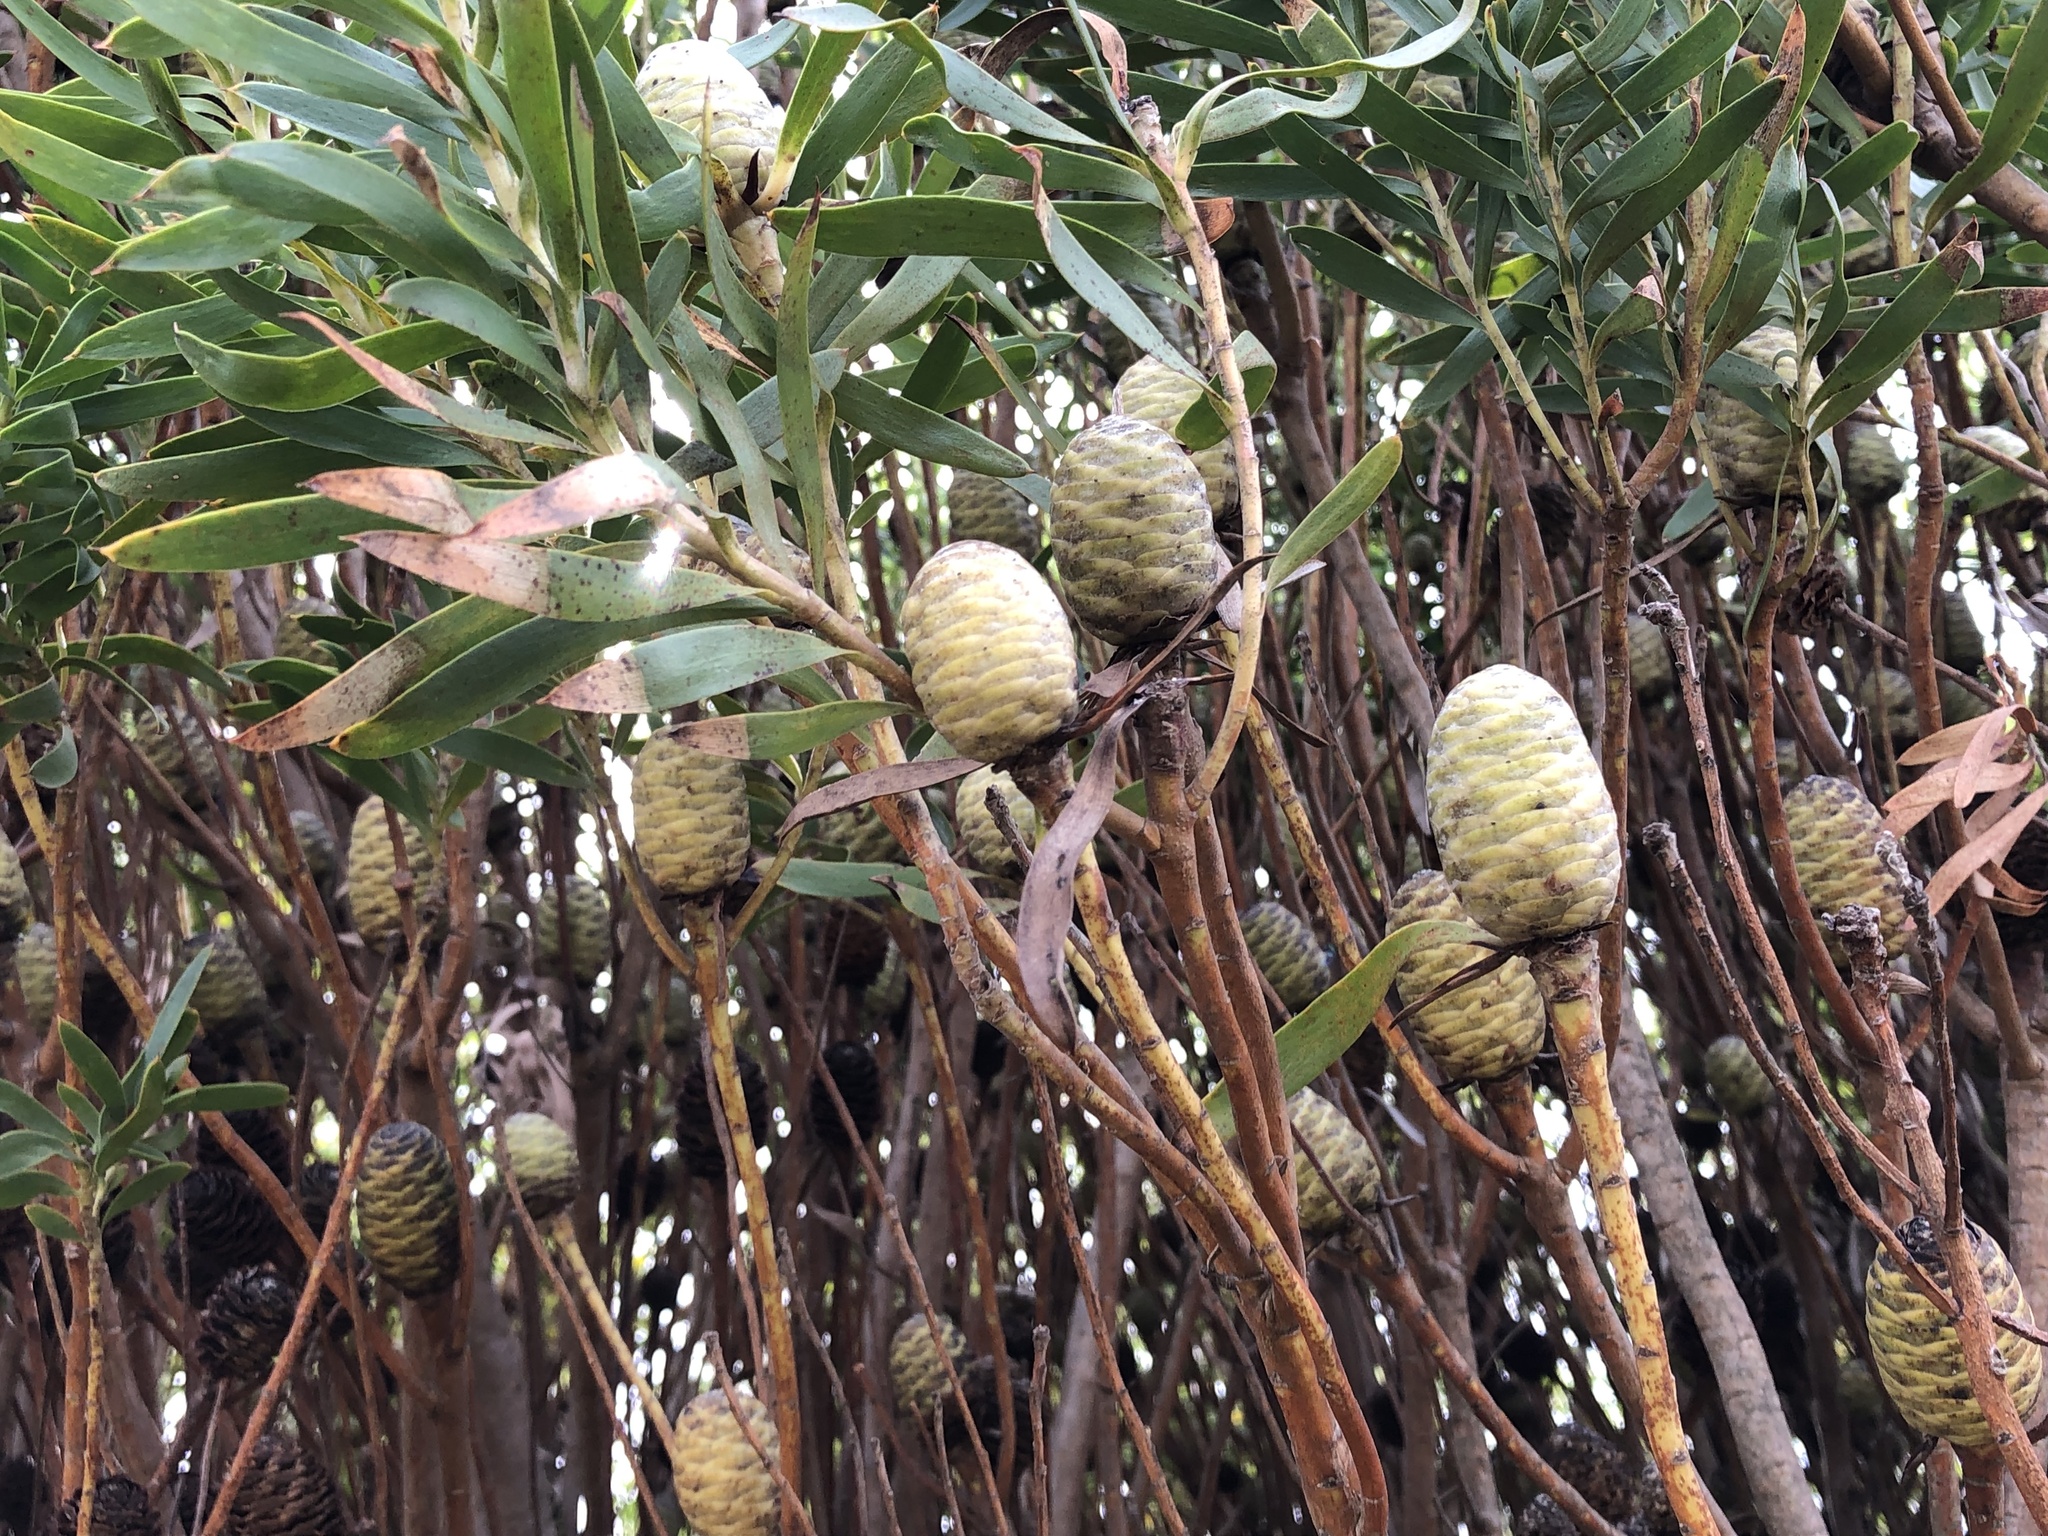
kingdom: Plantae
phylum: Tracheophyta
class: Magnoliopsida
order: Proteales
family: Proteaceae
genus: Leucadendron
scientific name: Leucadendron coniferum
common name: Dune conebush
